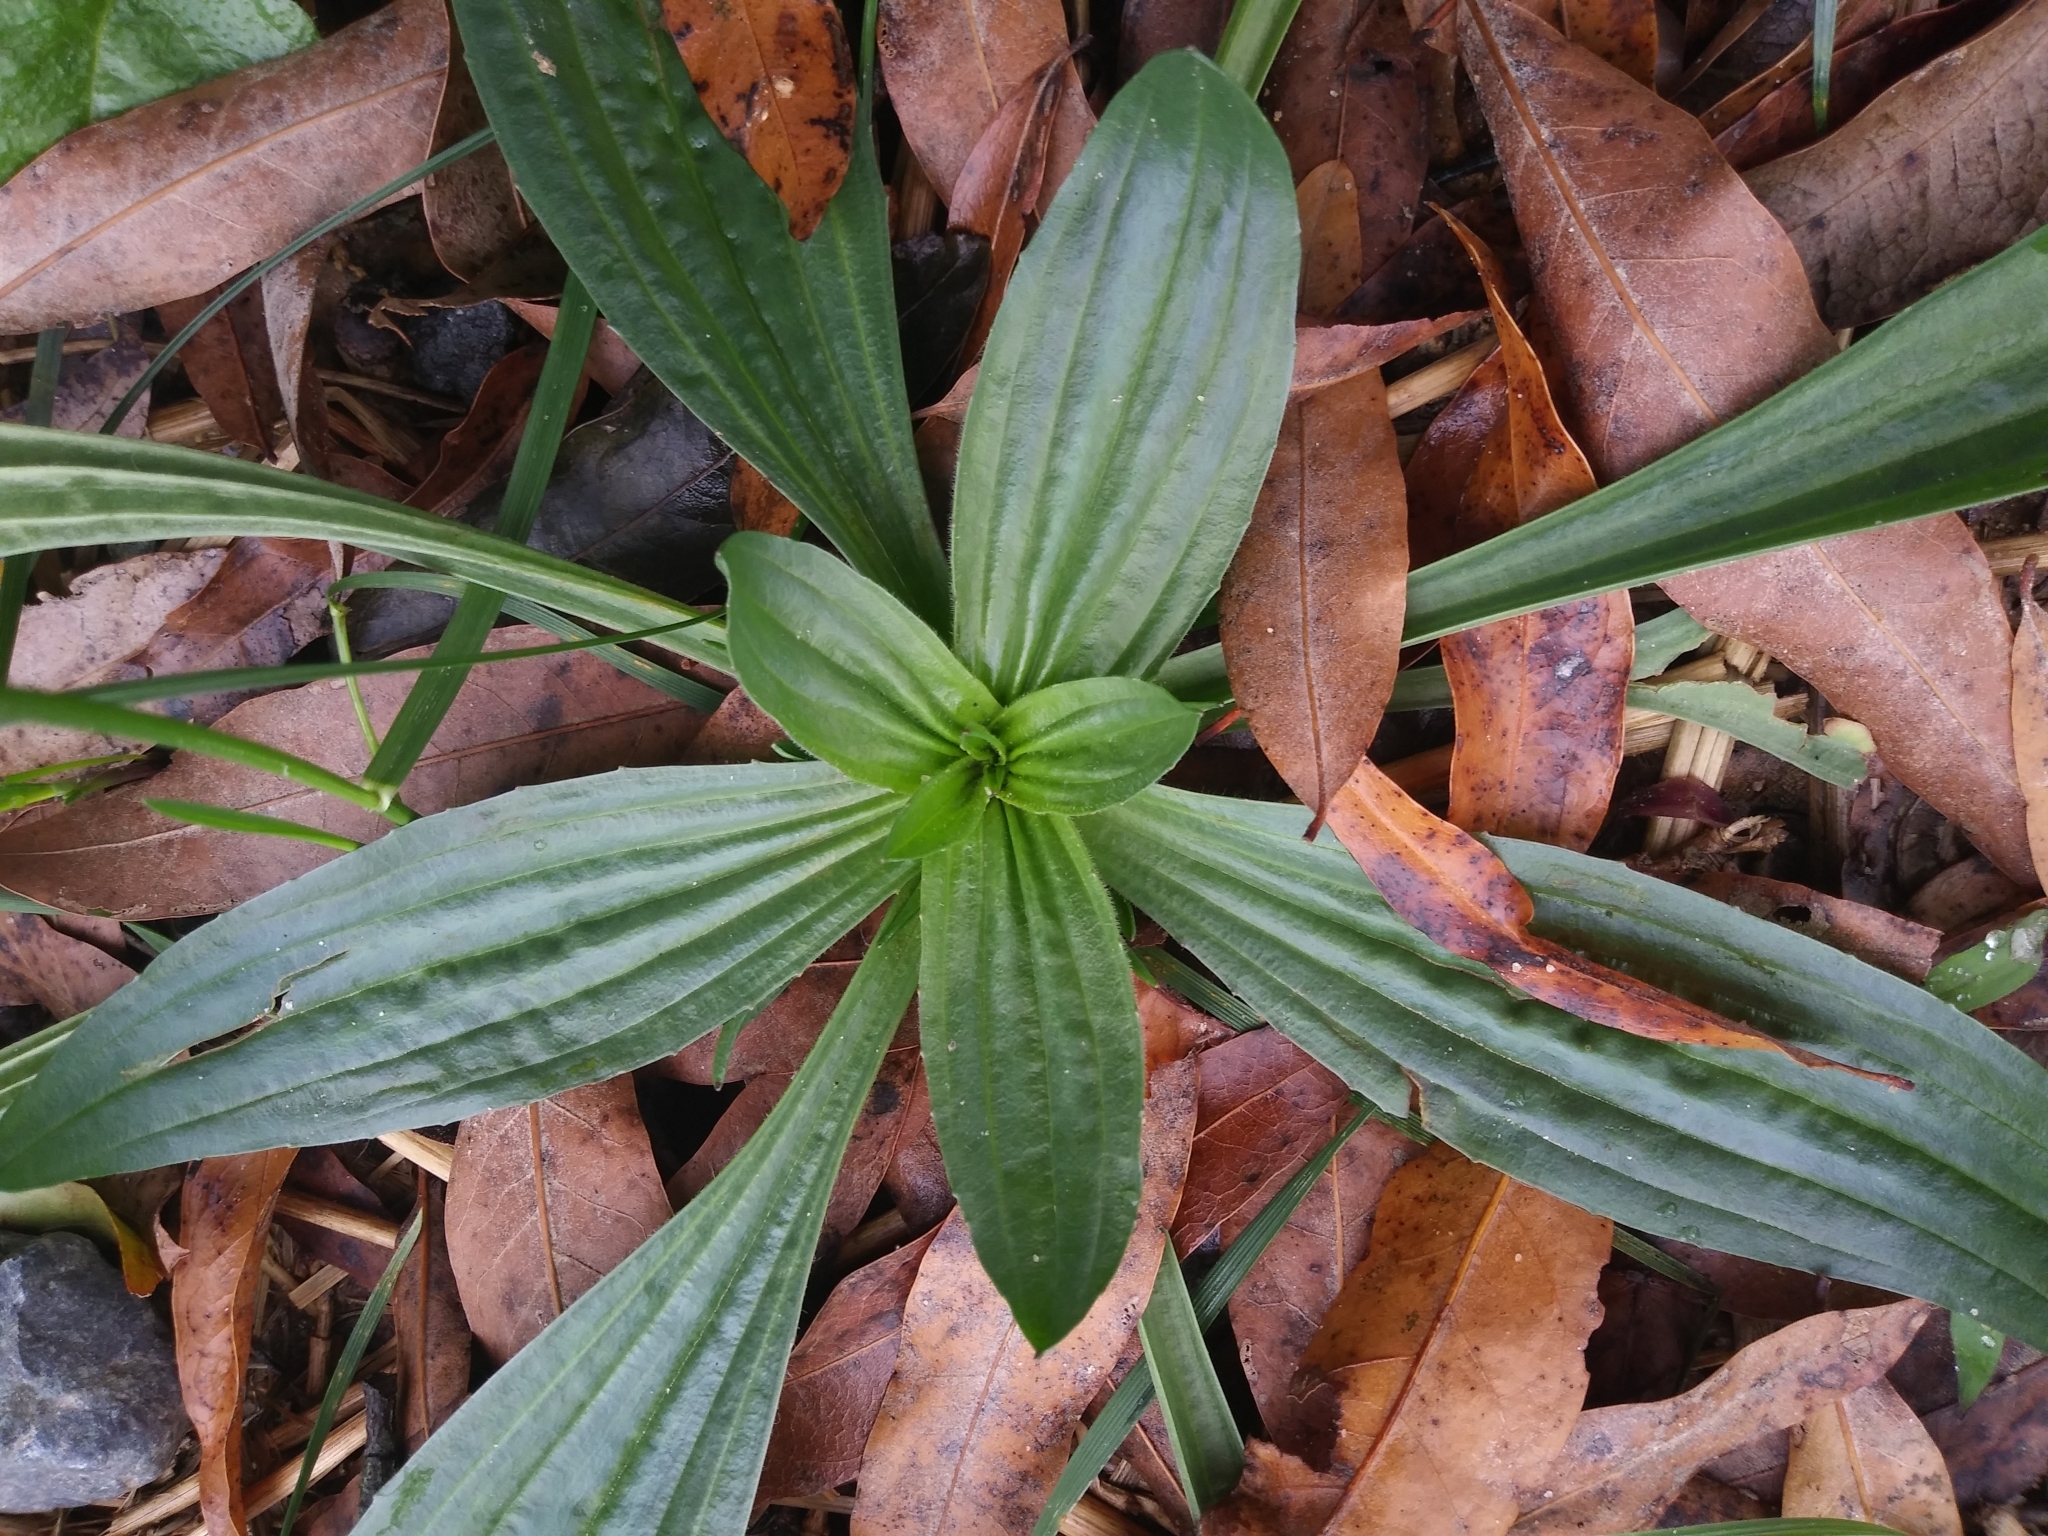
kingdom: Plantae
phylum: Tracheophyta
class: Magnoliopsida
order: Lamiales
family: Plantaginaceae
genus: Plantago
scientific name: Plantago lanceolata
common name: Ribwort plantain
